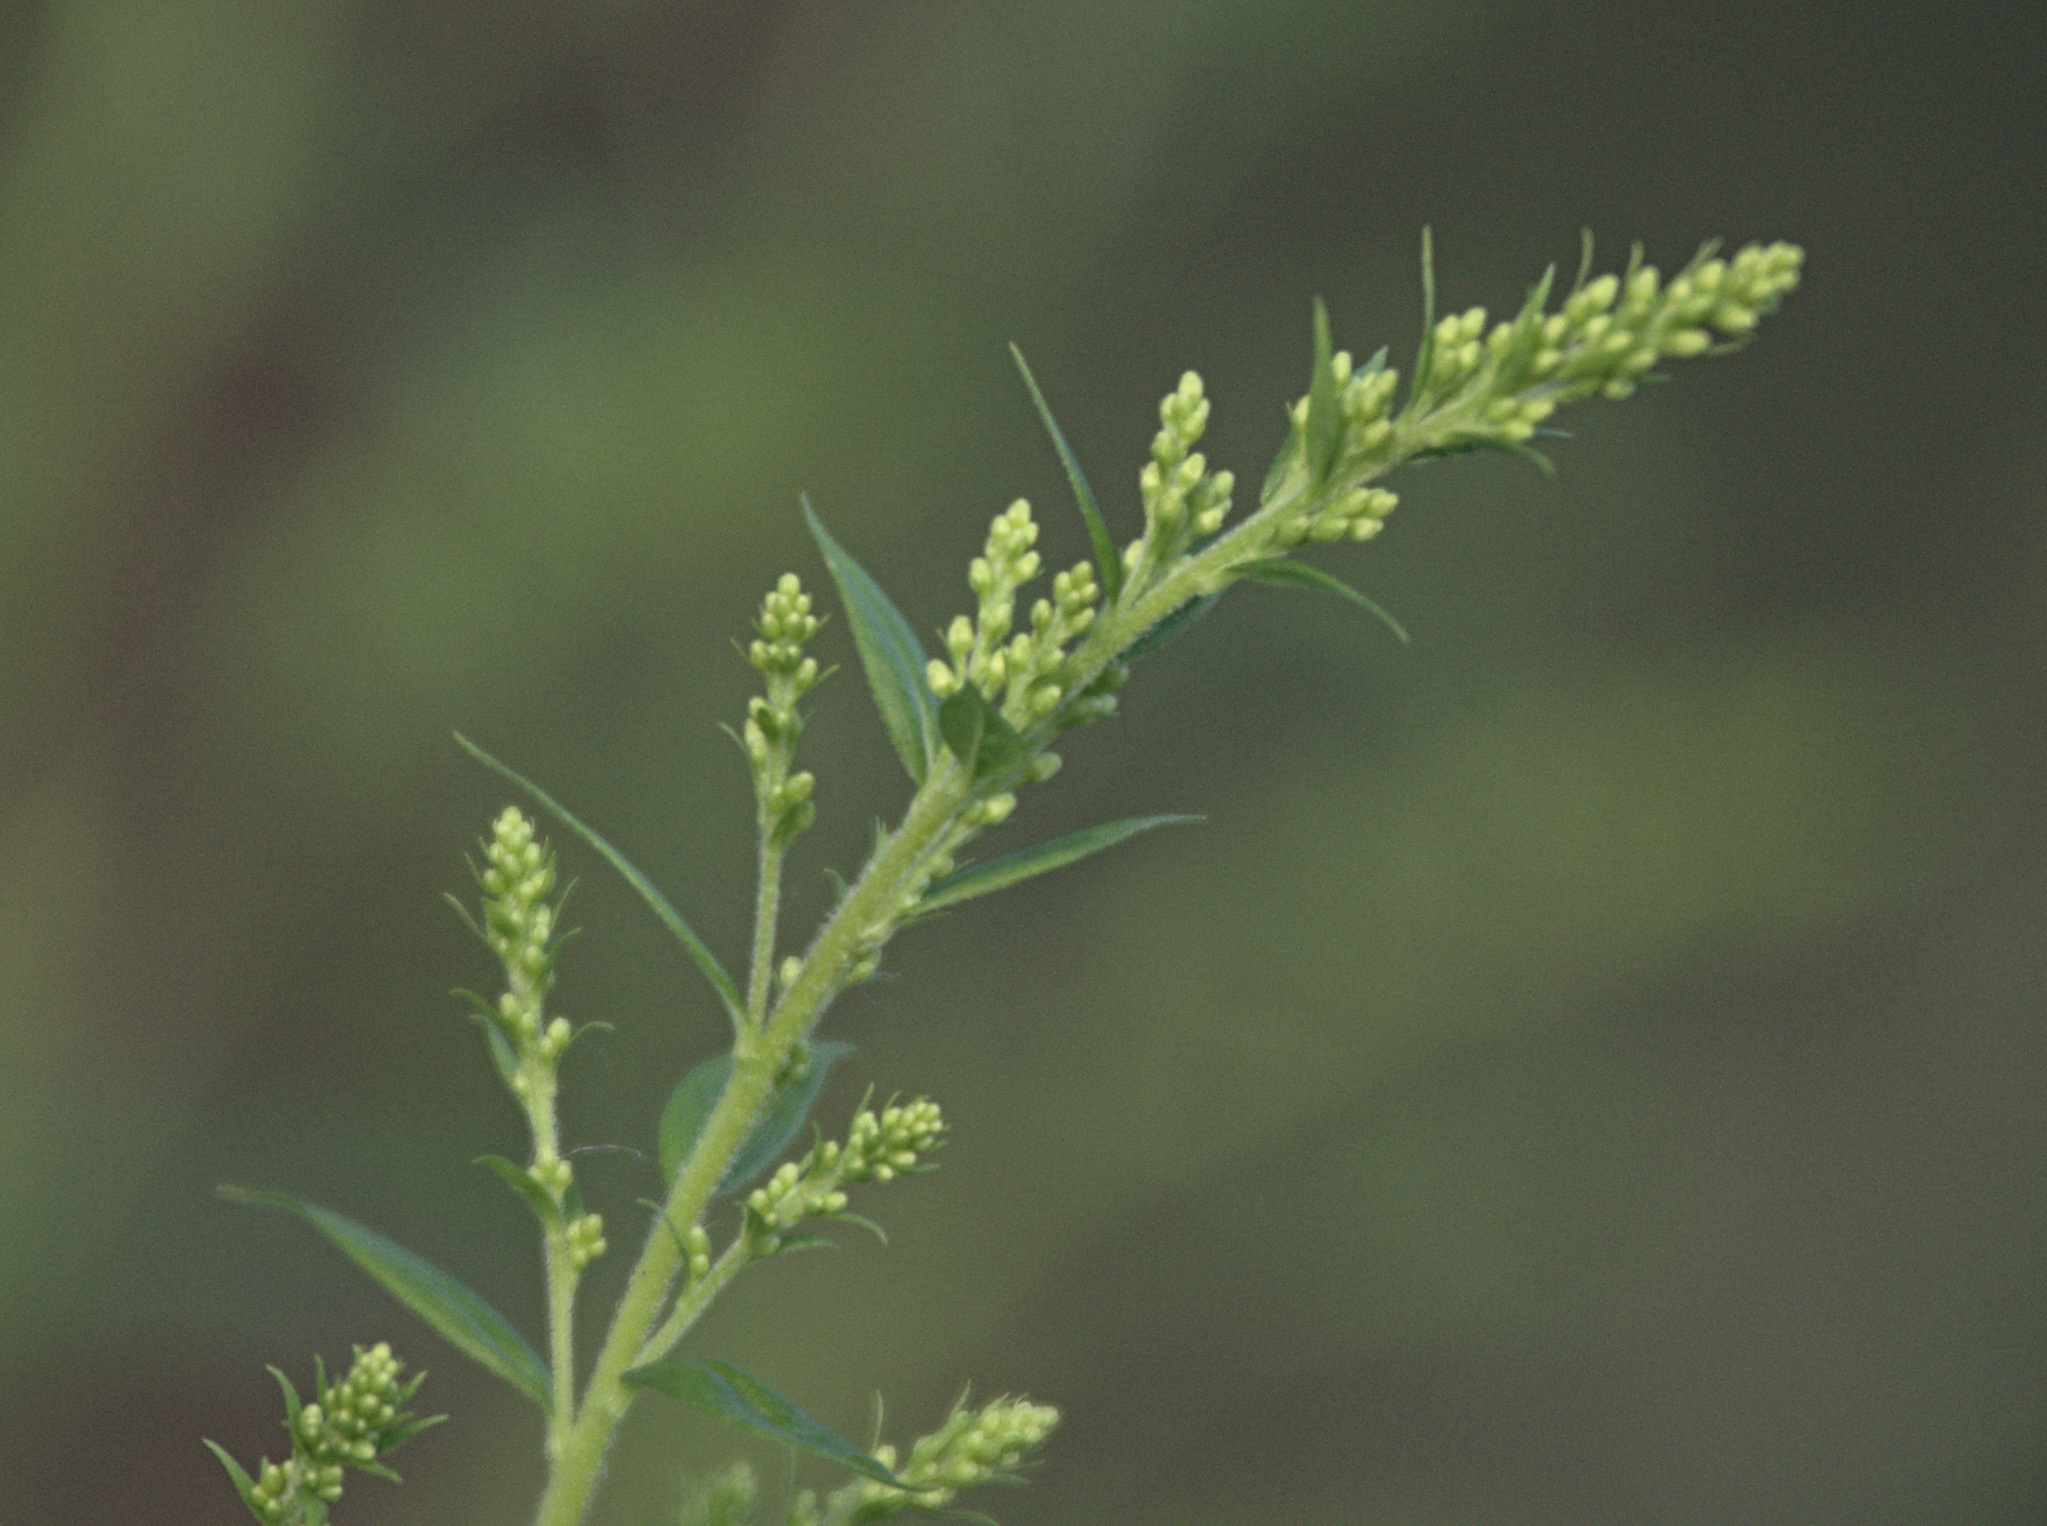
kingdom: Plantae
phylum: Tracheophyta
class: Magnoliopsida
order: Asterales
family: Asteraceae
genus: Solidago
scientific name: Solidago canadensis
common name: Canada goldenrod
